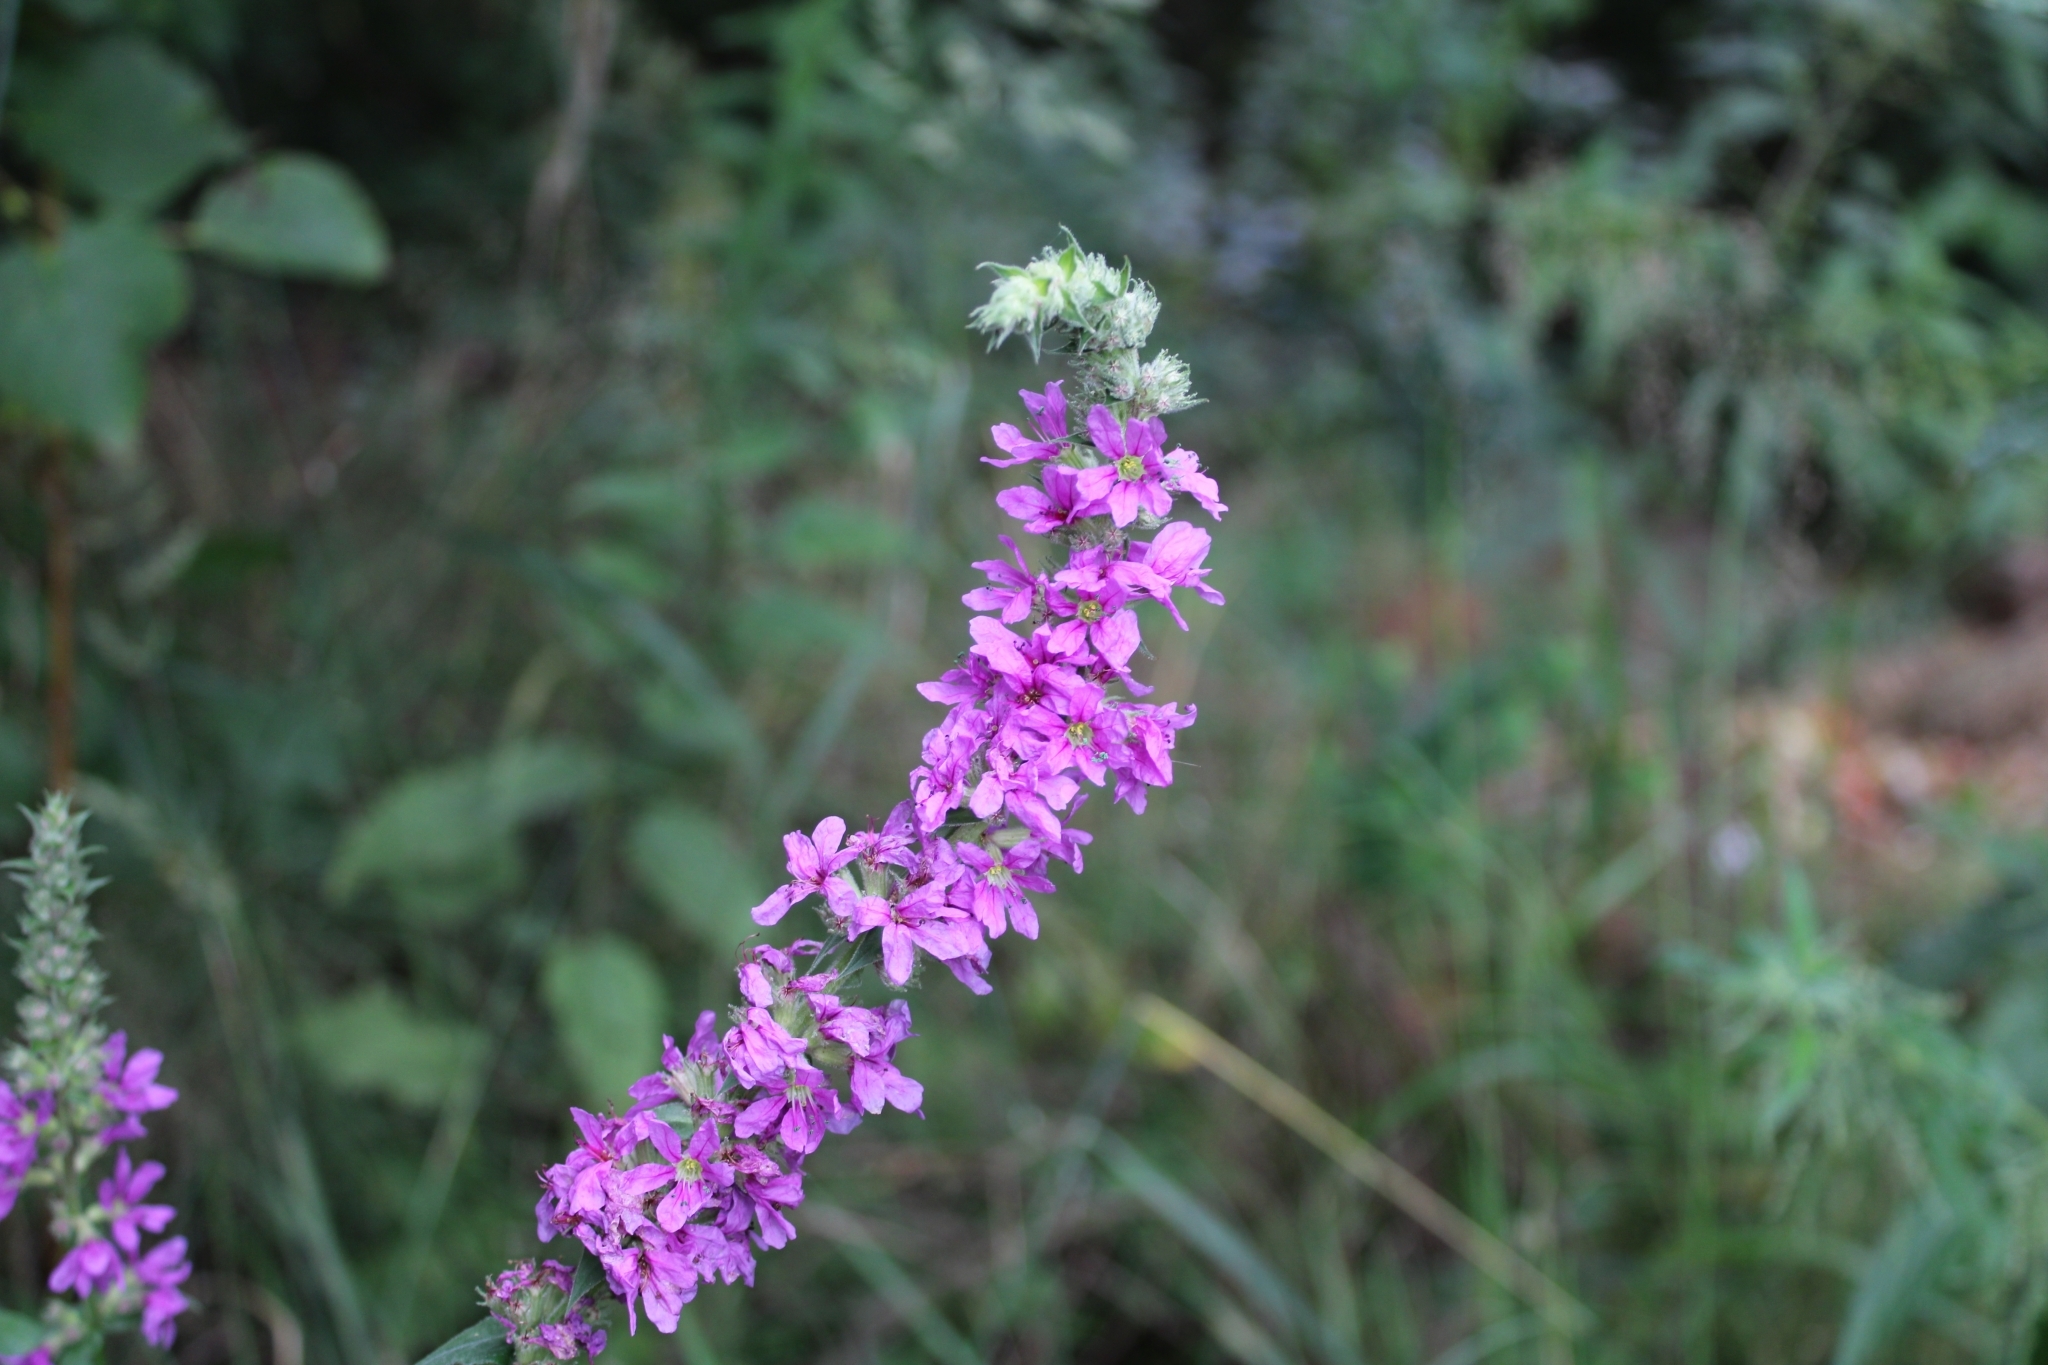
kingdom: Plantae
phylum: Tracheophyta
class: Magnoliopsida
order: Myrtales
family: Lythraceae
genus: Lythrum
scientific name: Lythrum salicaria
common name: Purple loosestrife
